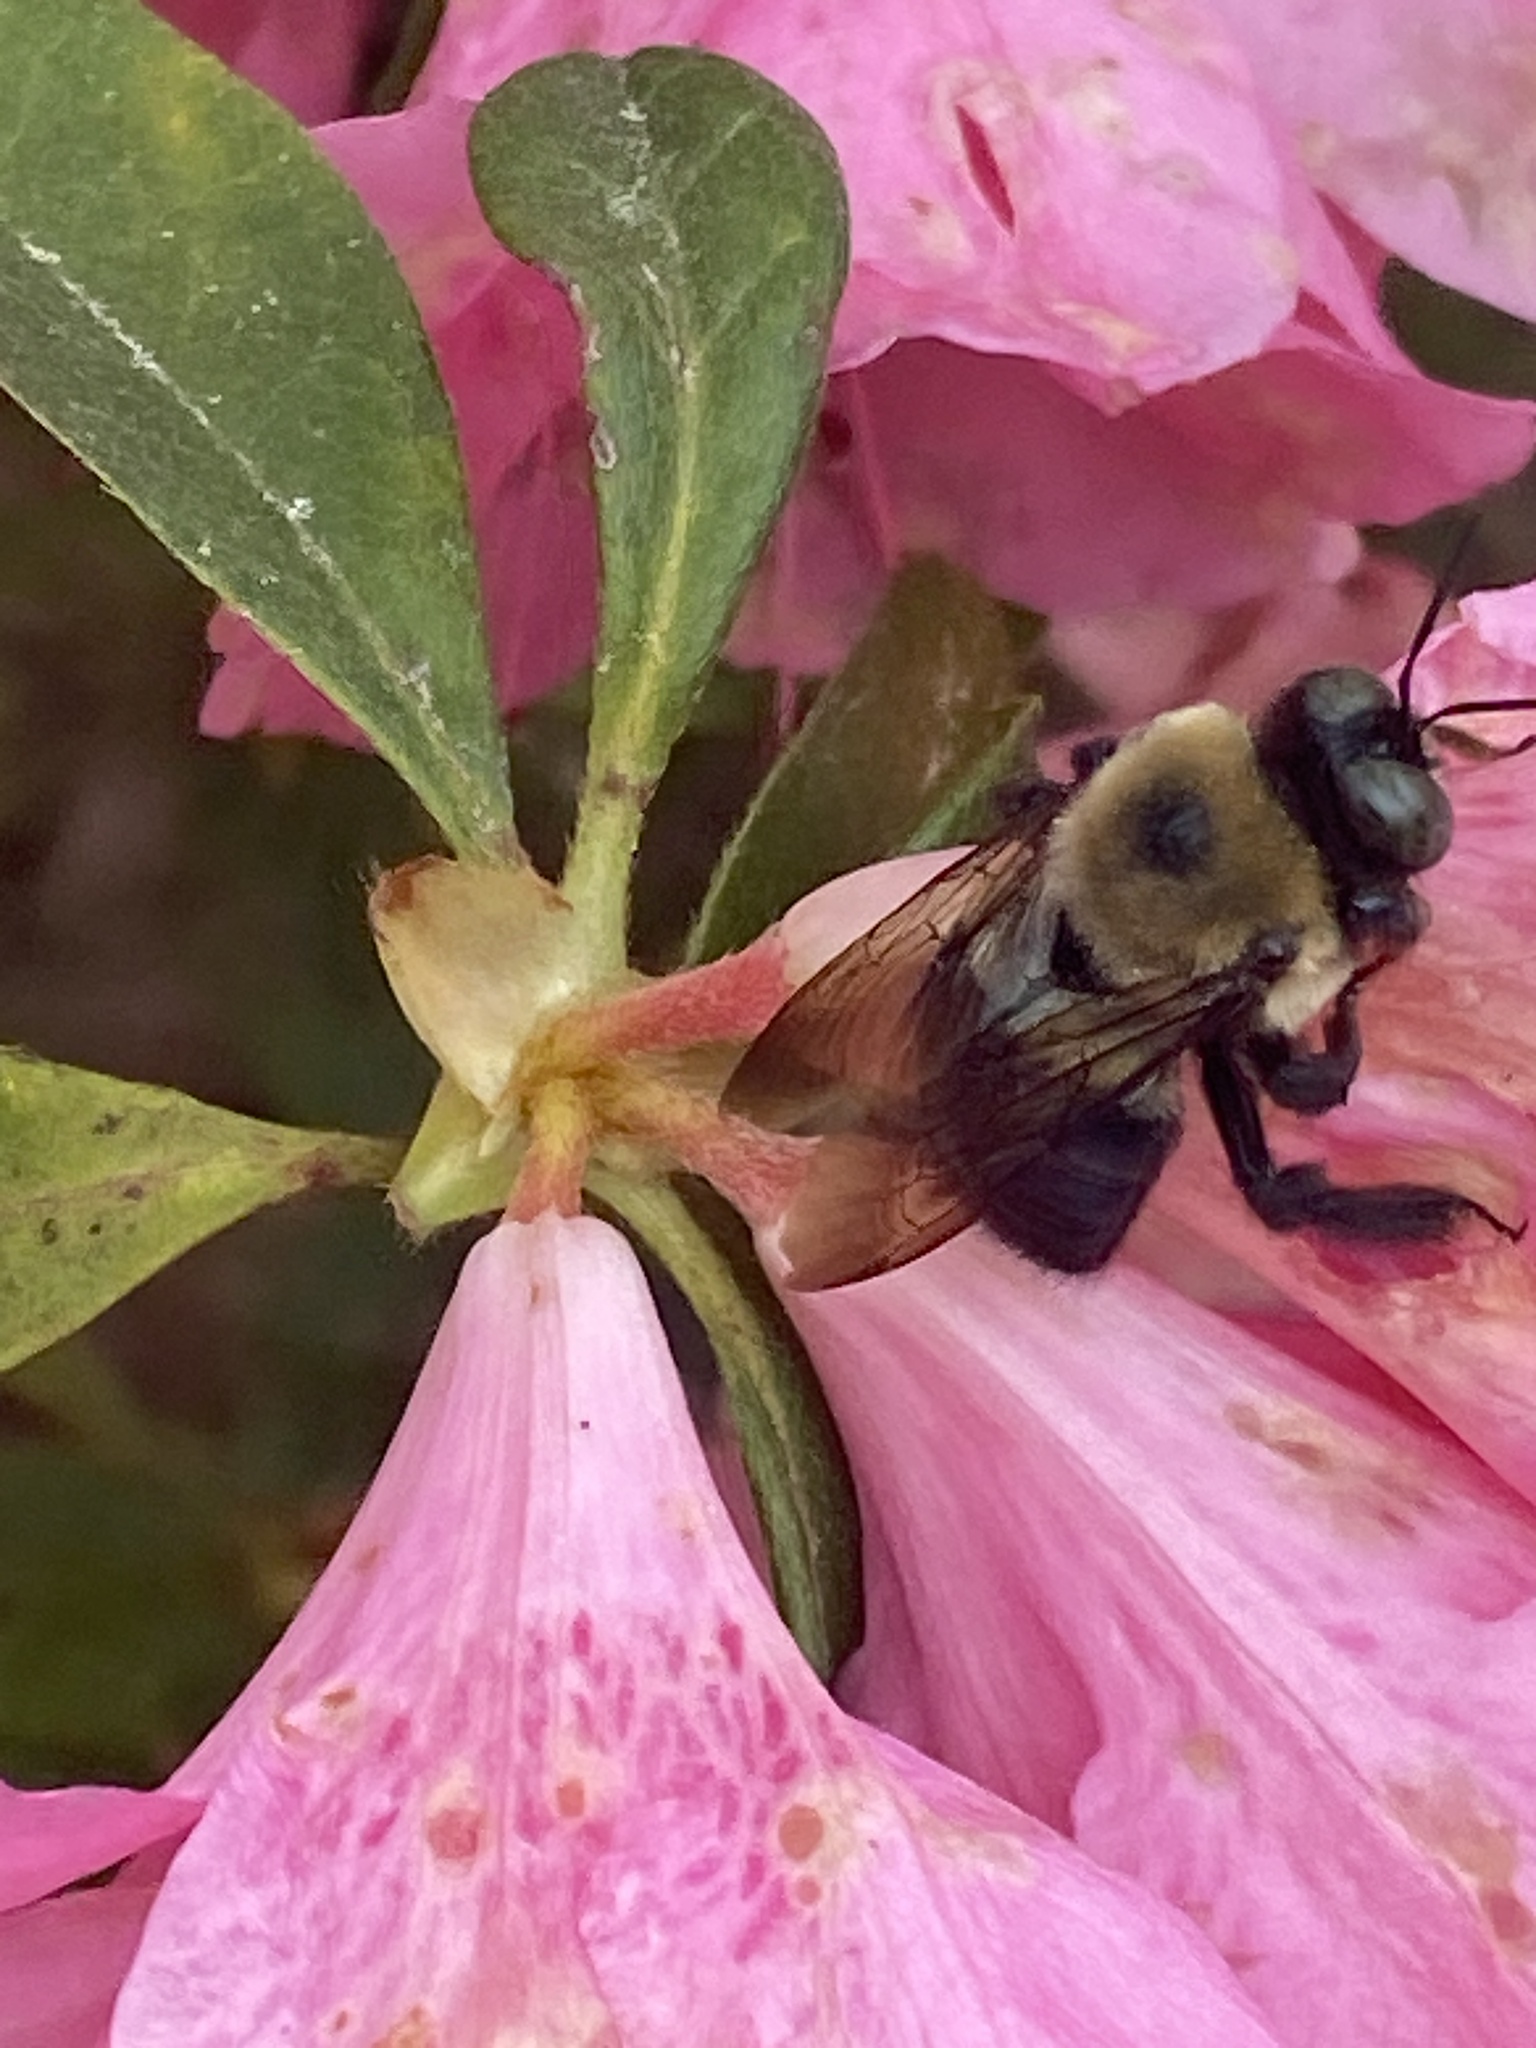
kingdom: Animalia
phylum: Arthropoda
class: Insecta
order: Hymenoptera
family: Apidae
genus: Xylocopa
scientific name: Xylocopa virginica
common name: Carpenter bee
